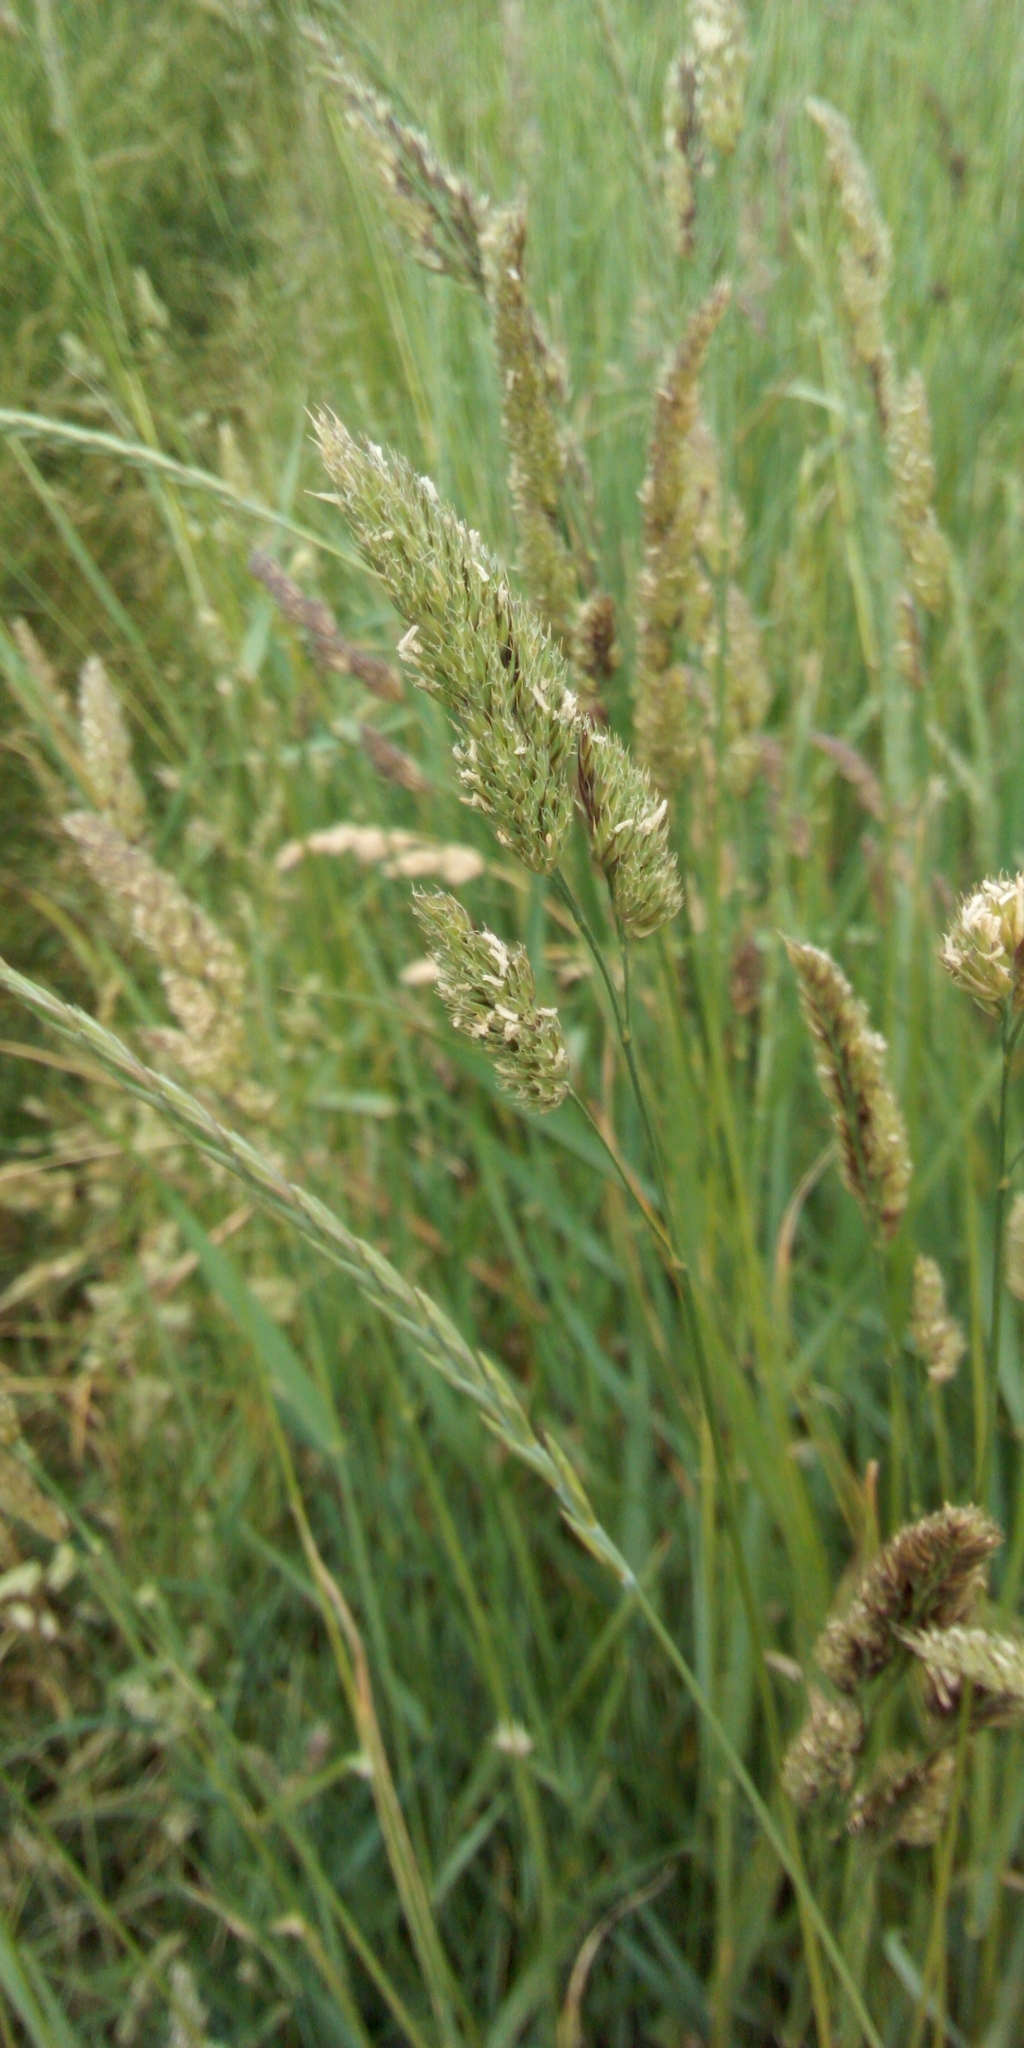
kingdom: Plantae
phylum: Tracheophyta
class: Liliopsida
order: Poales
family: Poaceae
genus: Dactylis
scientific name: Dactylis glomerata
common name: Orchardgrass
